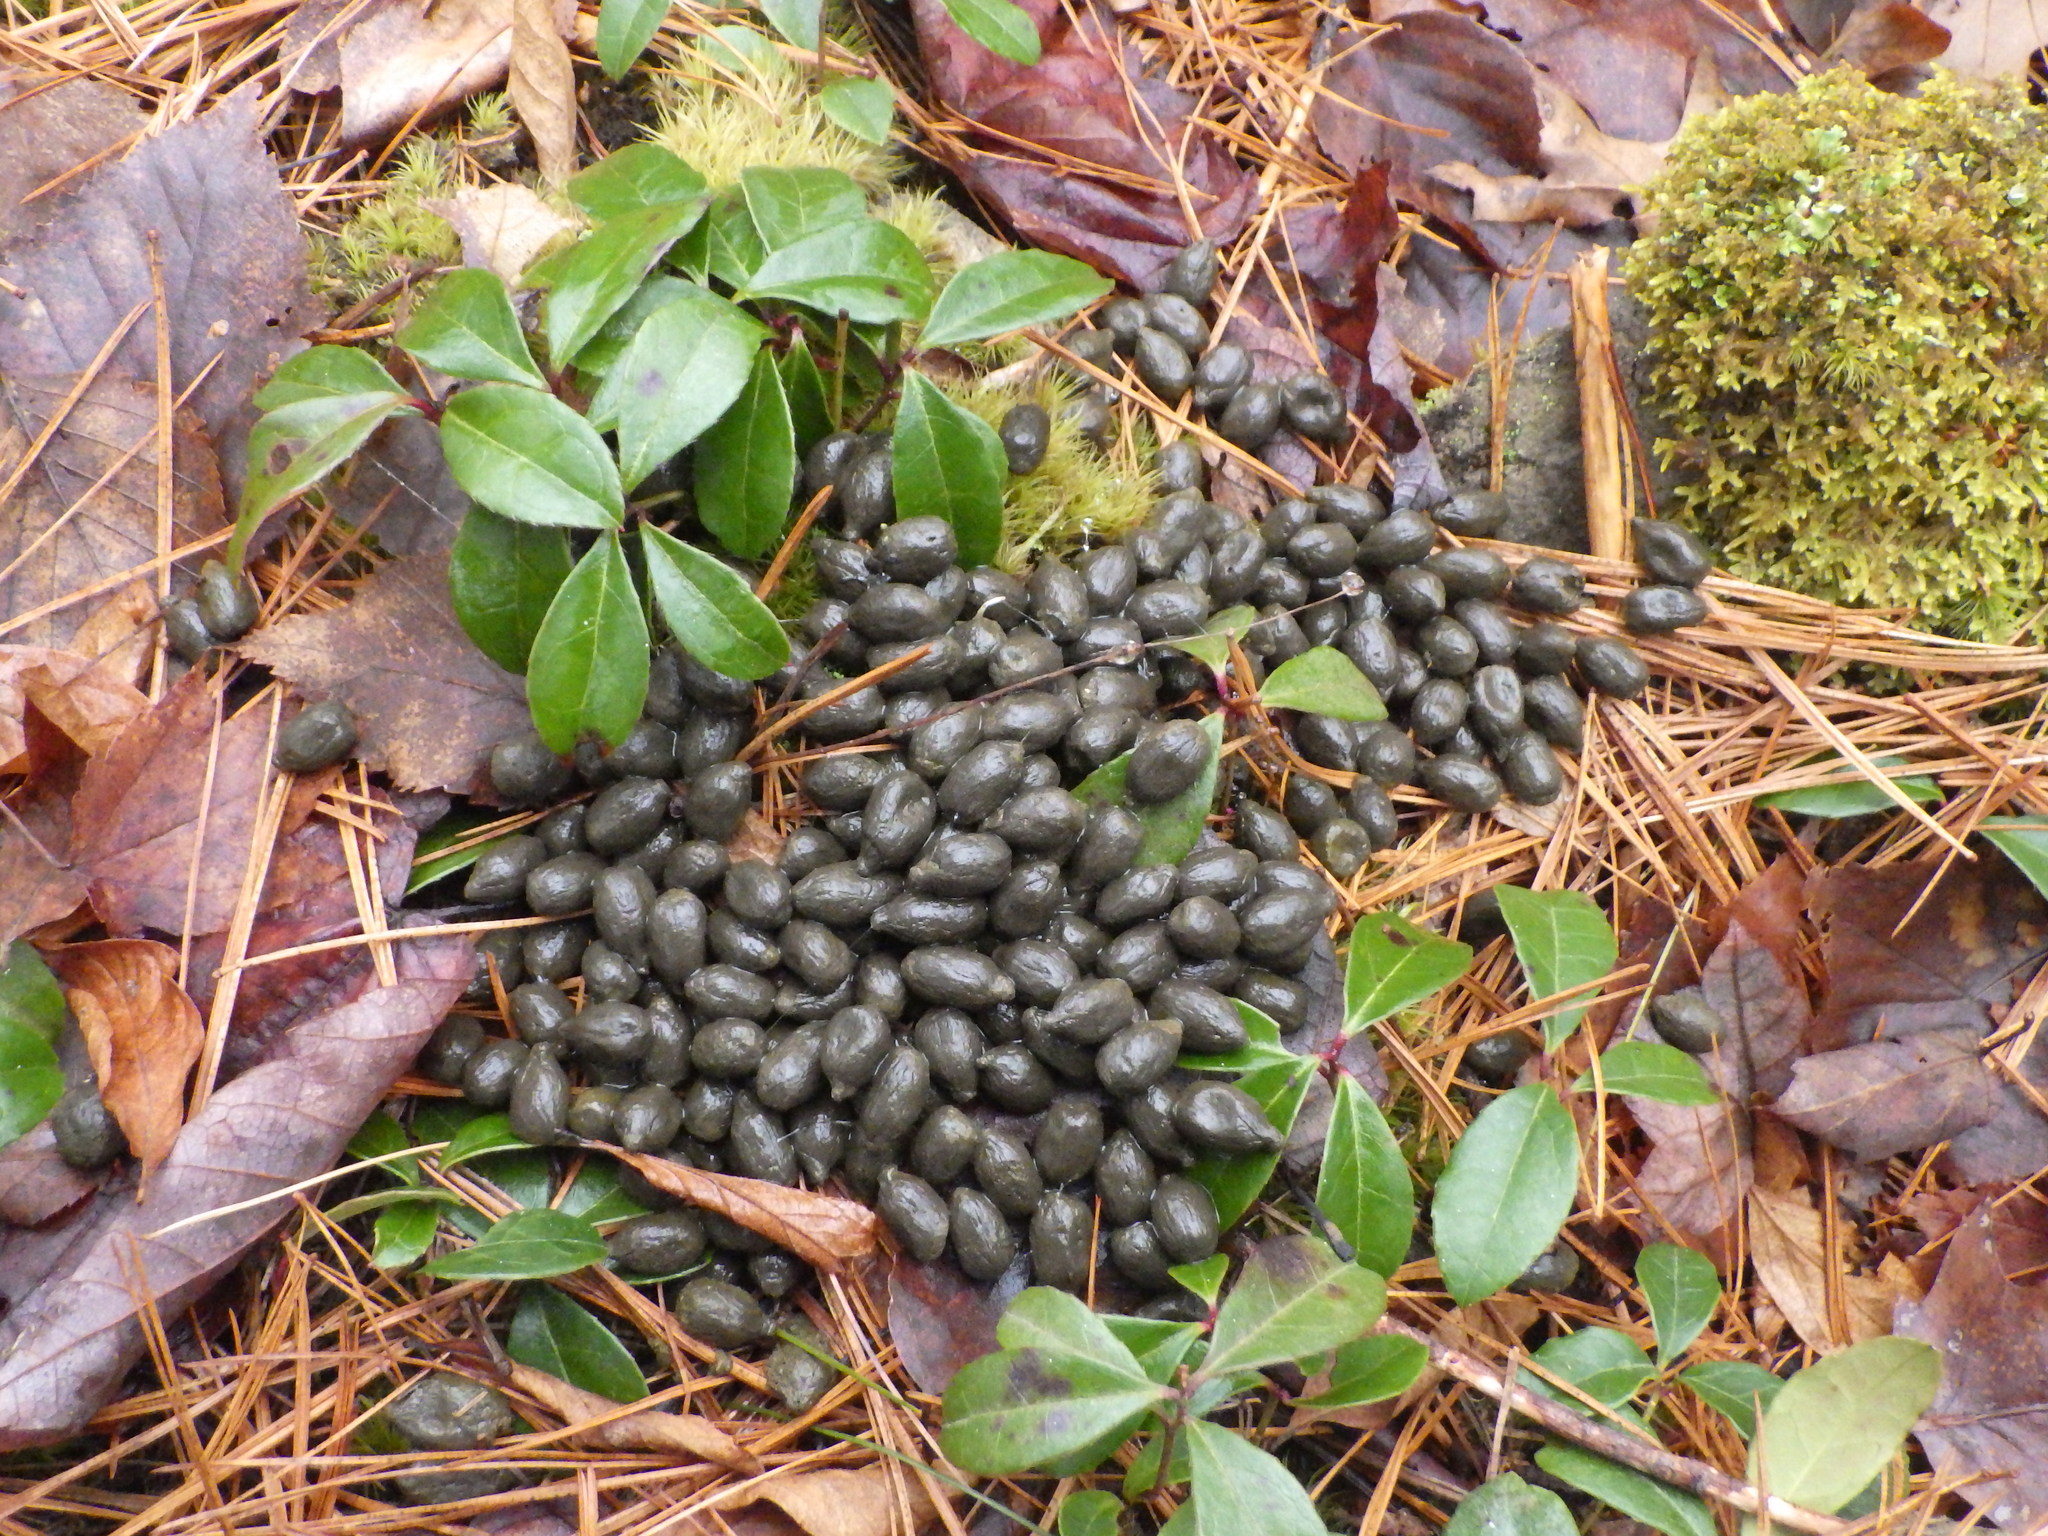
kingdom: Animalia
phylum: Chordata
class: Mammalia
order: Artiodactyla
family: Cervidae
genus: Odocoileus
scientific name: Odocoileus virginianus
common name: White-tailed deer
